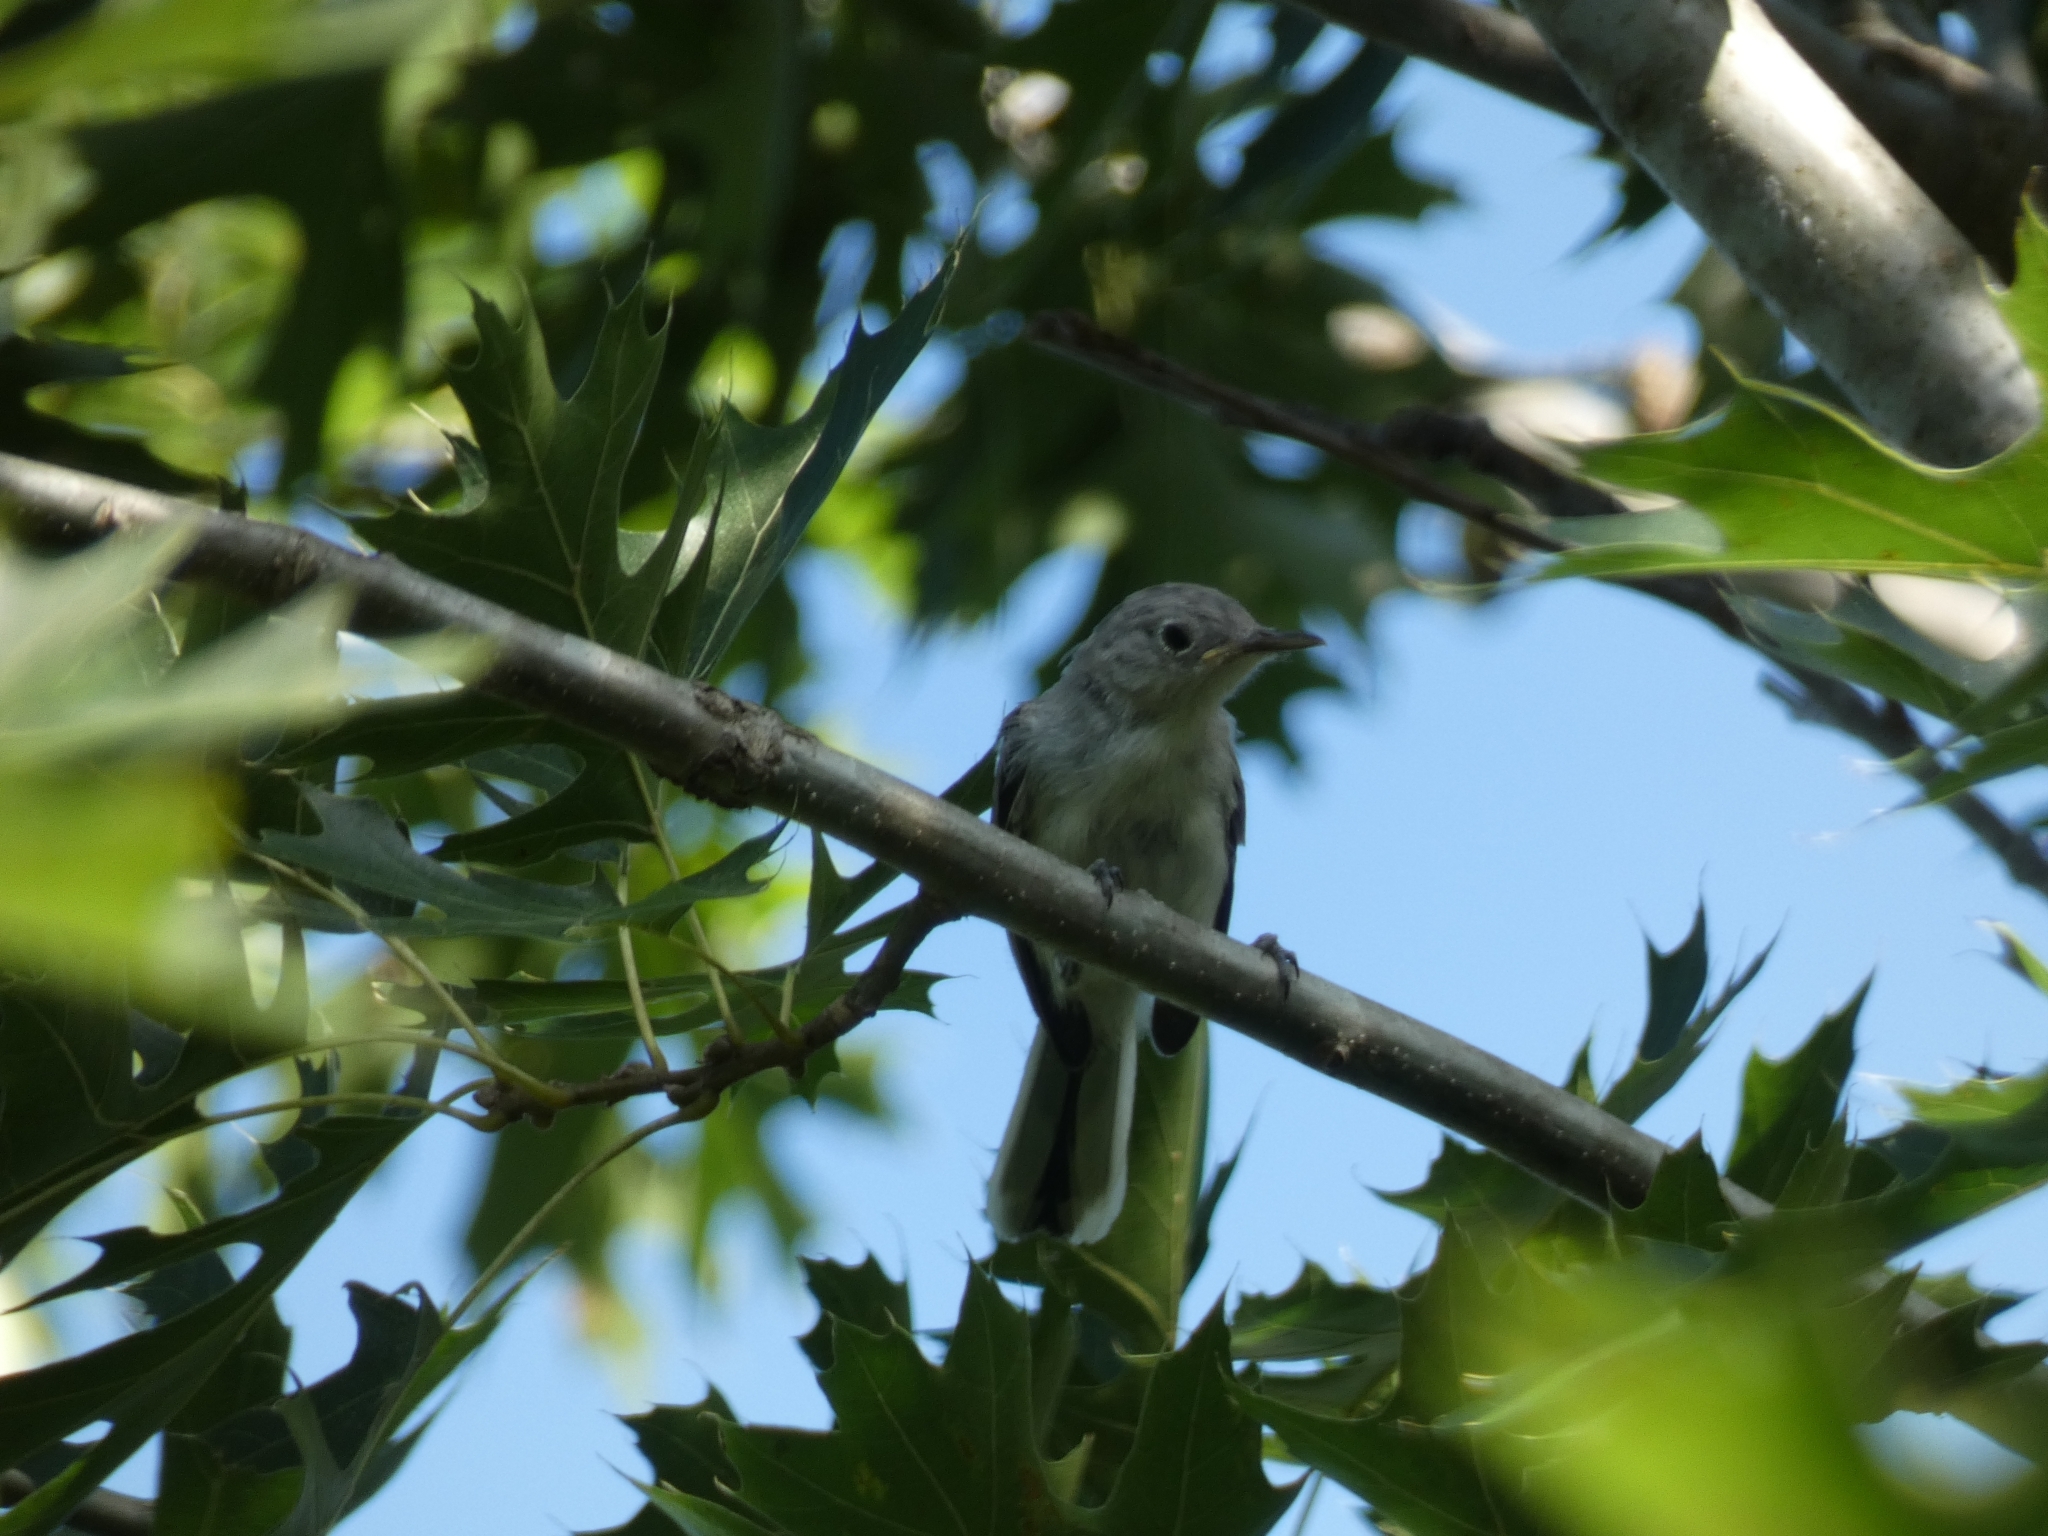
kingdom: Animalia
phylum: Chordata
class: Aves
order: Passeriformes
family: Polioptilidae
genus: Polioptila
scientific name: Polioptila caerulea
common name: Blue-gray gnatcatcher
